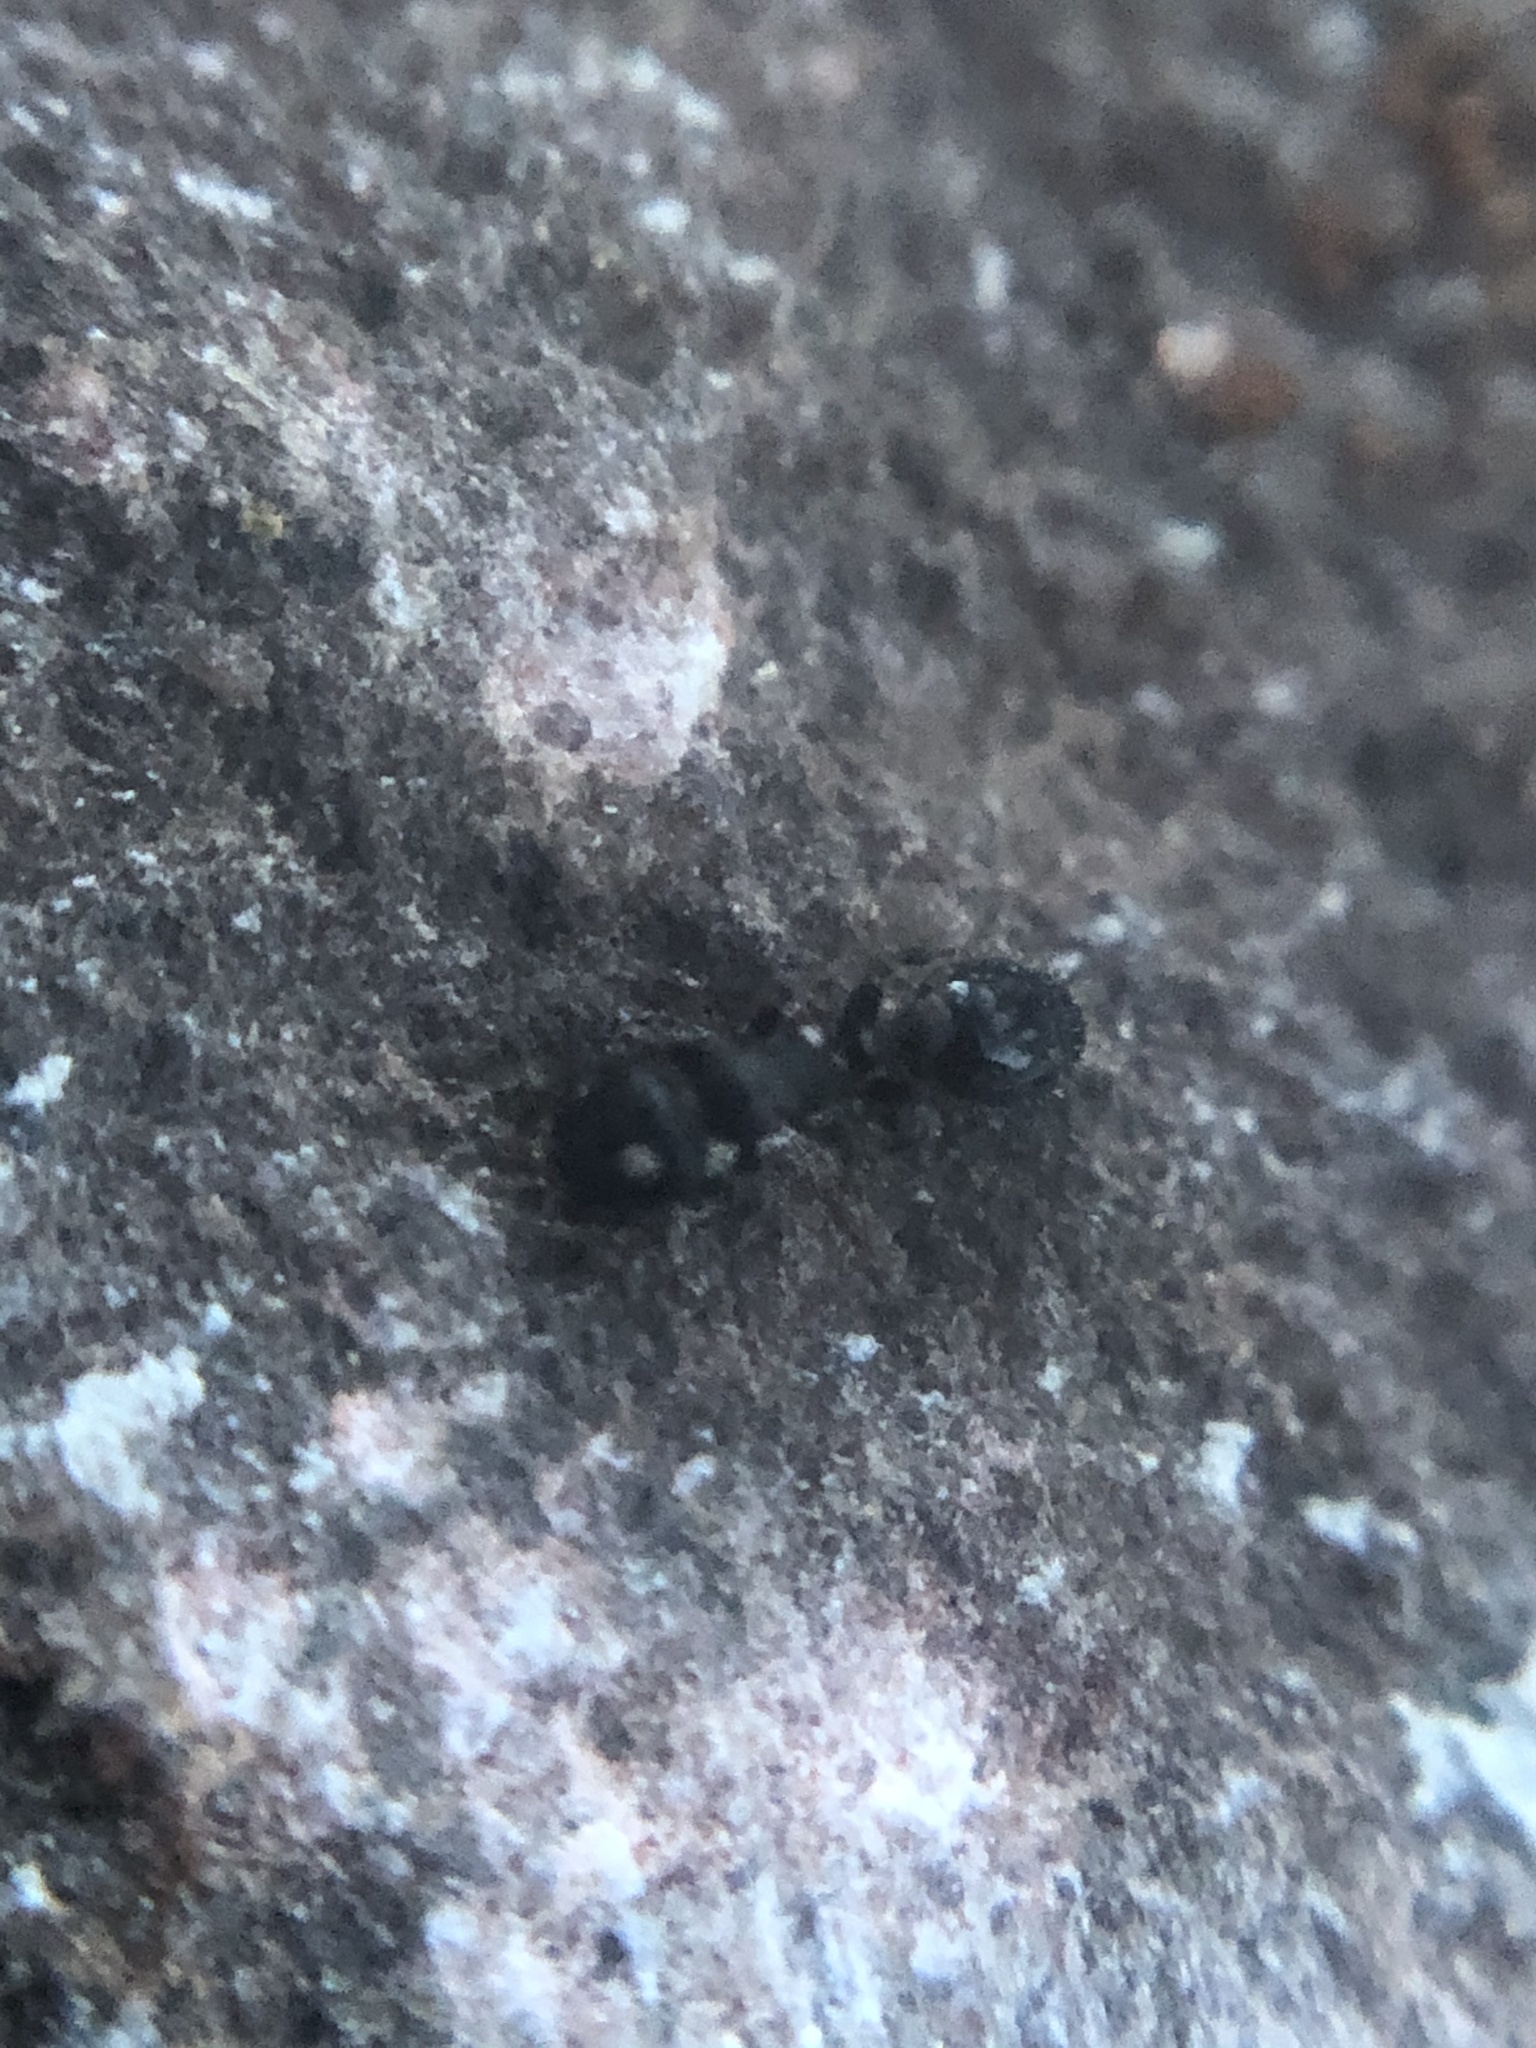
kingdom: Animalia
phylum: Arthropoda
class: Insecta
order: Hymenoptera
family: Formicidae
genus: Tetramorium
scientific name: Tetramorium immigrans
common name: Pavement ant
